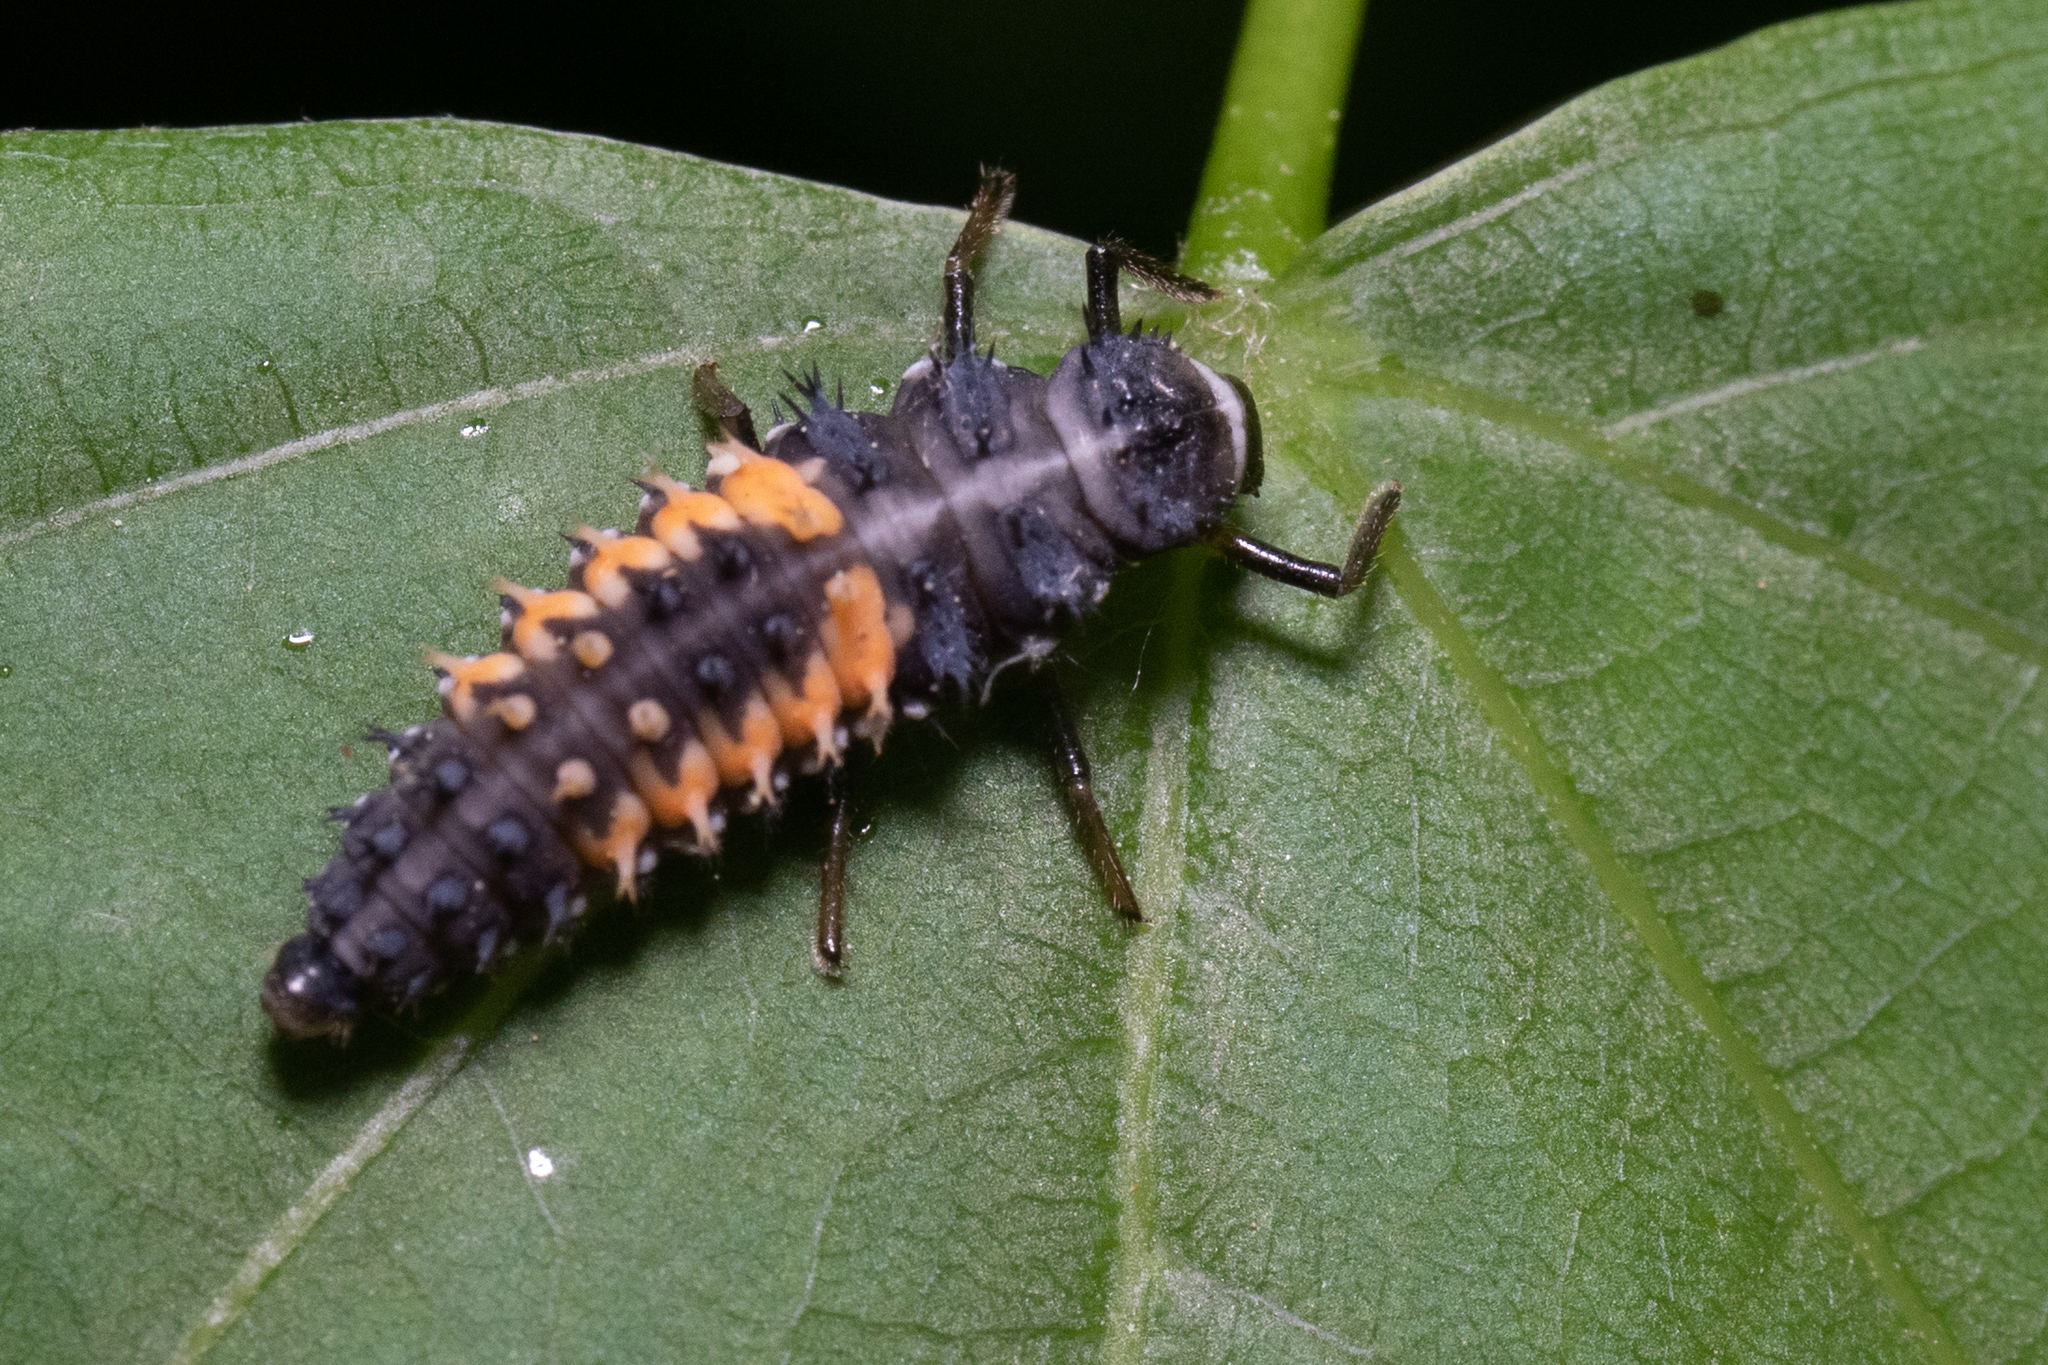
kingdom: Animalia
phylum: Arthropoda
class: Insecta
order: Coleoptera
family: Coccinellidae
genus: Harmonia
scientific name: Harmonia axyridis
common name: Harlequin ladybird
